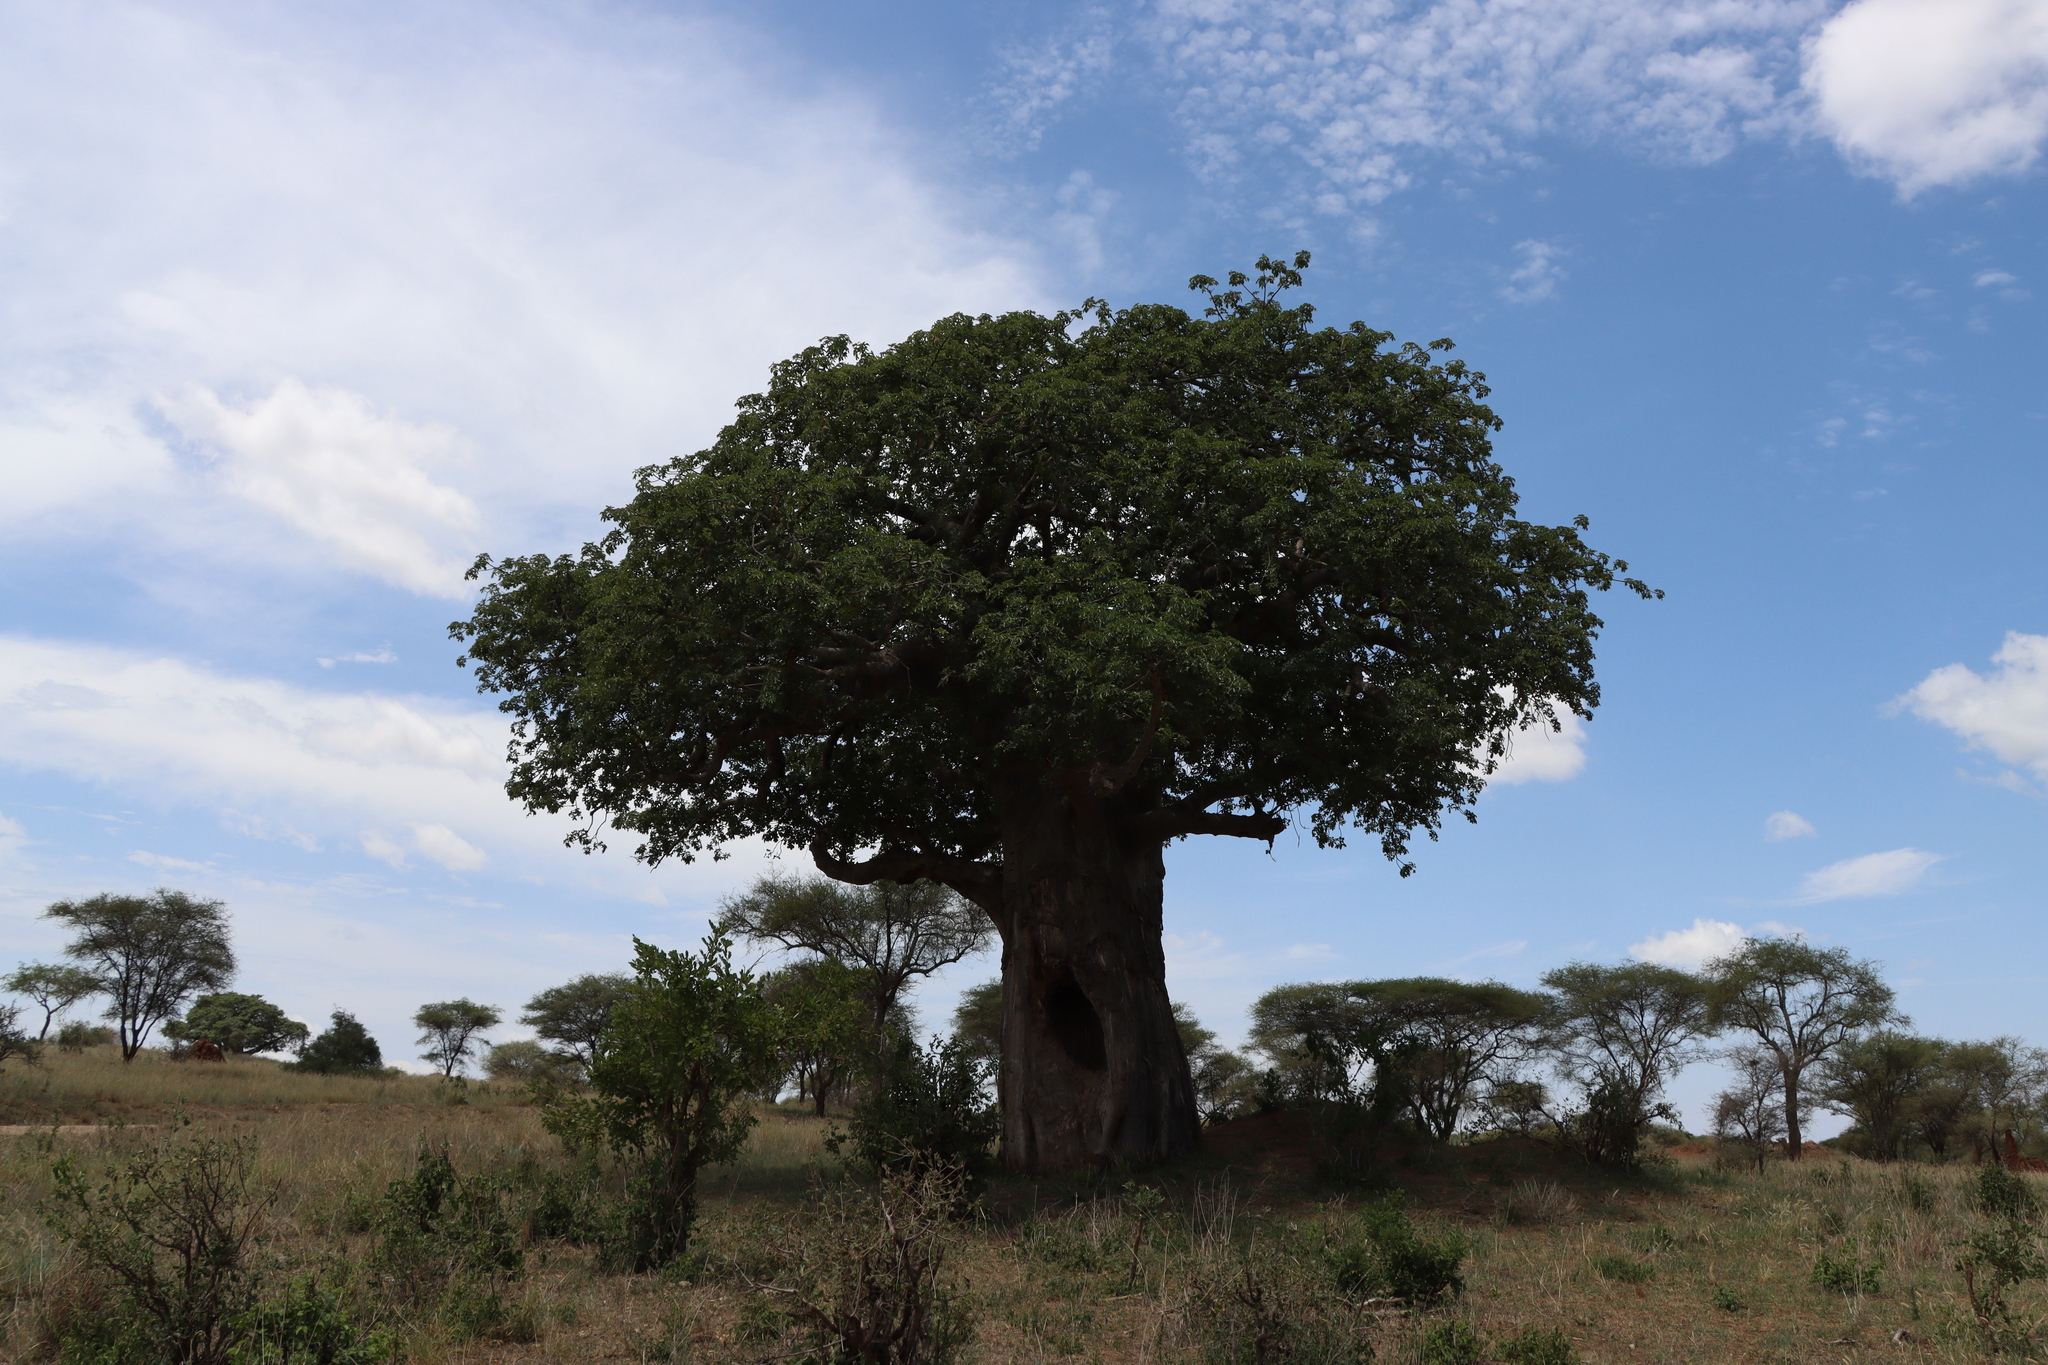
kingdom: Plantae
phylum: Tracheophyta
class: Magnoliopsida
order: Malvales
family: Malvaceae
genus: Adansonia
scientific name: Adansonia digitata
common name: Dead-rat-tree
